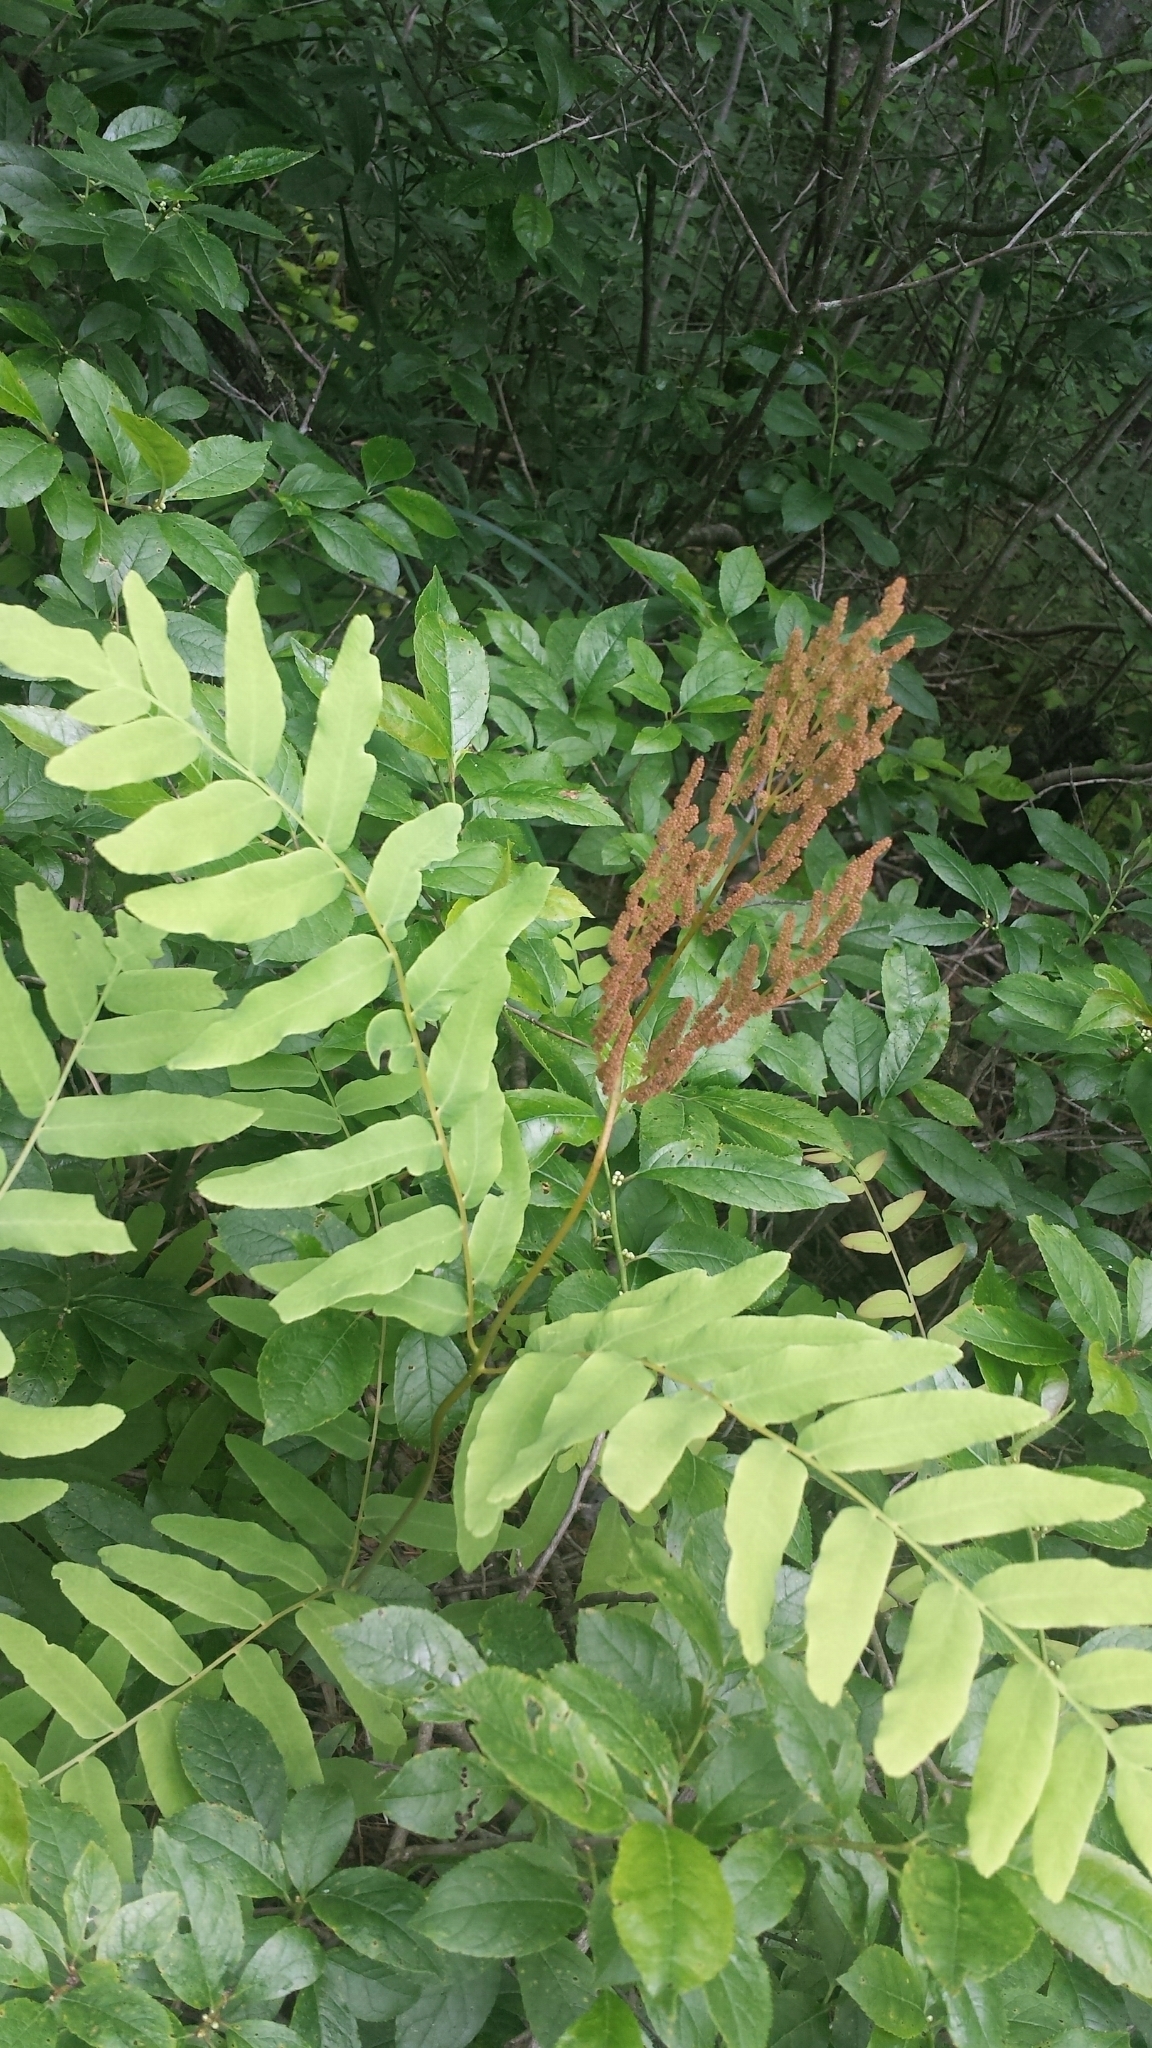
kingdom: Plantae
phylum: Tracheophyta
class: Polypodiopsida
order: Osmundales
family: Osmundaceae
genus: Osmunda
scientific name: Osmunda spectabilis
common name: American royal fern
